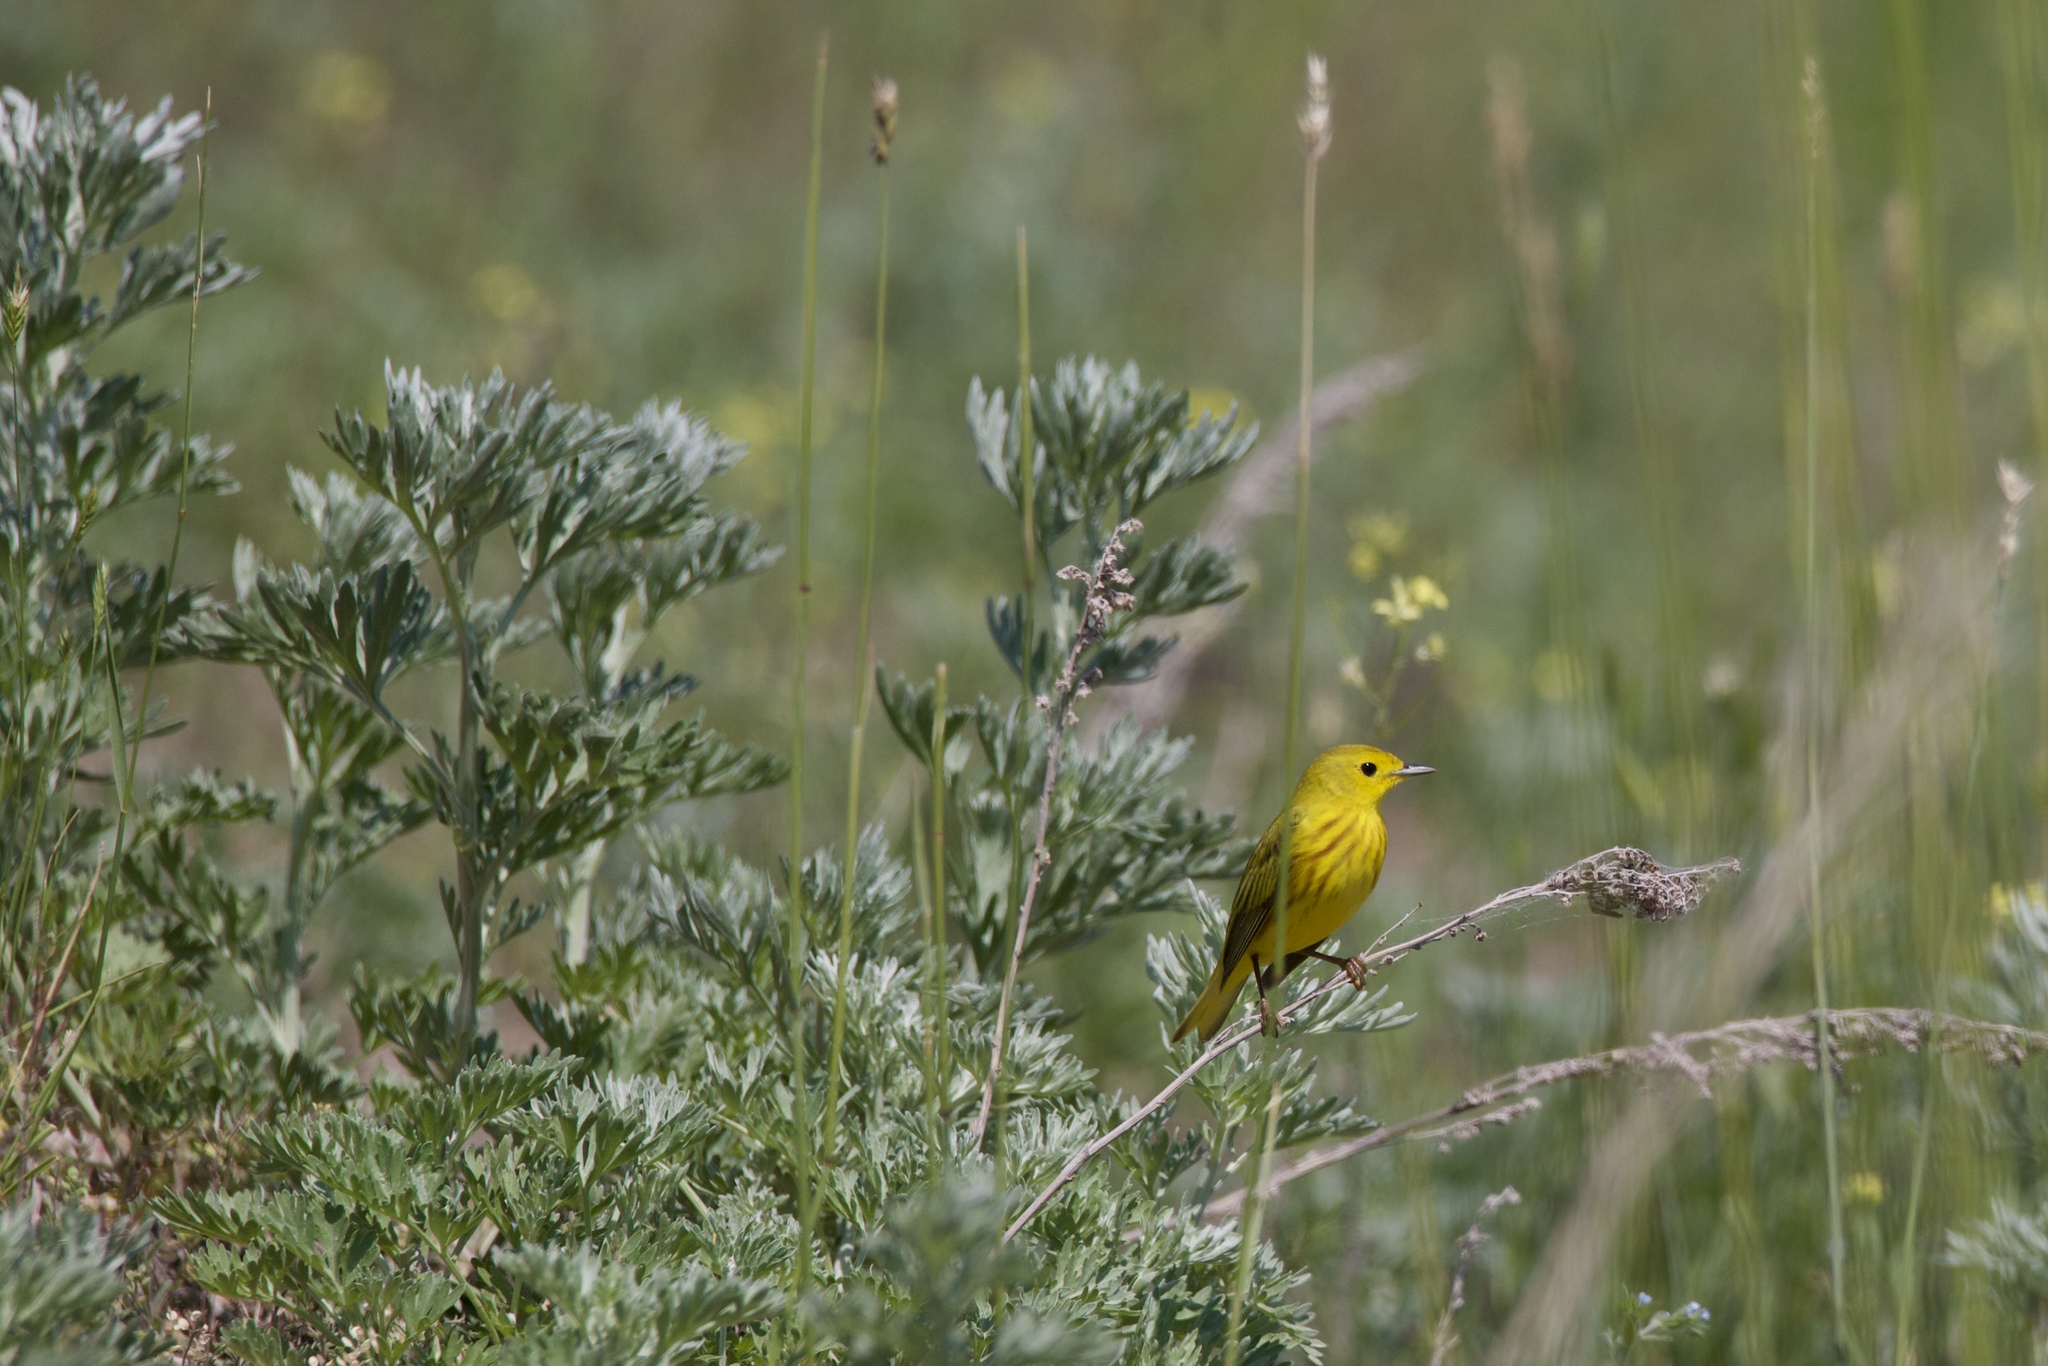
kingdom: Animalia
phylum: Chordata
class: Aves
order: Passeriformes
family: Parulidae
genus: Setophaga
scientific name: Setophaga petechia
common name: Yellow warbler
